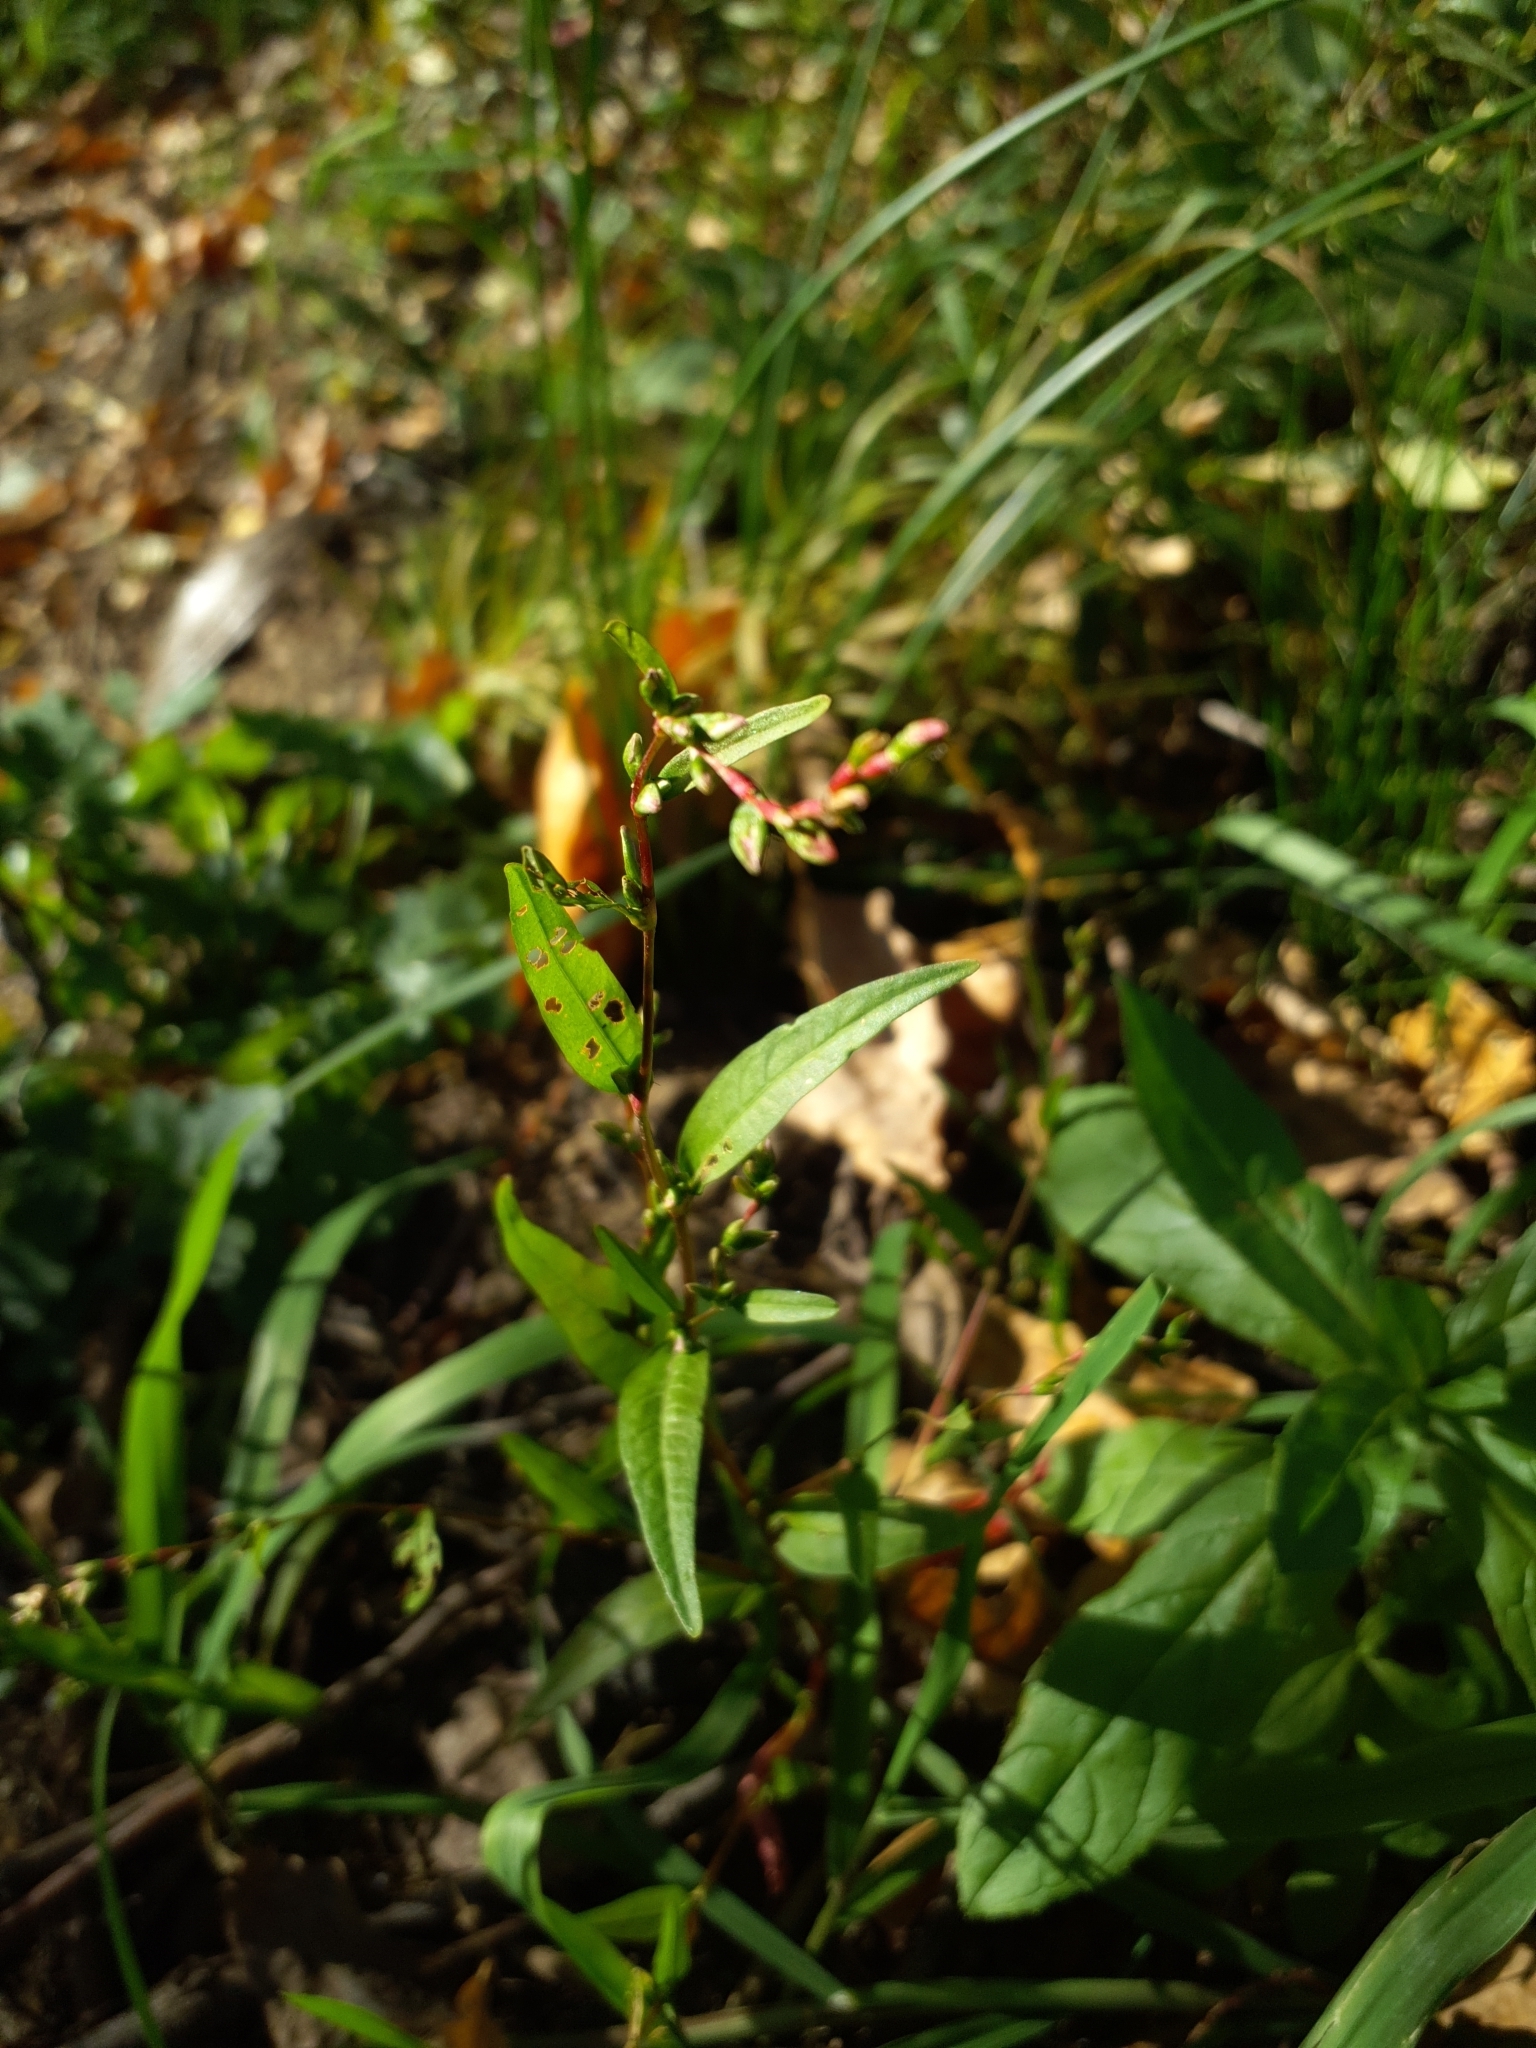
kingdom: Plantae
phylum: Tracheophyta
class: Magnoliopsida
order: Caryophyllales
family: Polygonaceae
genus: Persicaria
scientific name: Persicaria hydropiper
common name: Water-pepper
